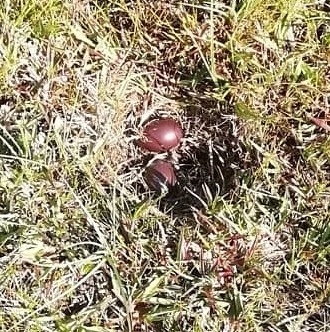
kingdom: Animalia
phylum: Chordata
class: Aves
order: Tinamiformes
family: Tinamidae
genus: Nothura
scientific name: Nothura maculosa
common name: Spotted nothura
